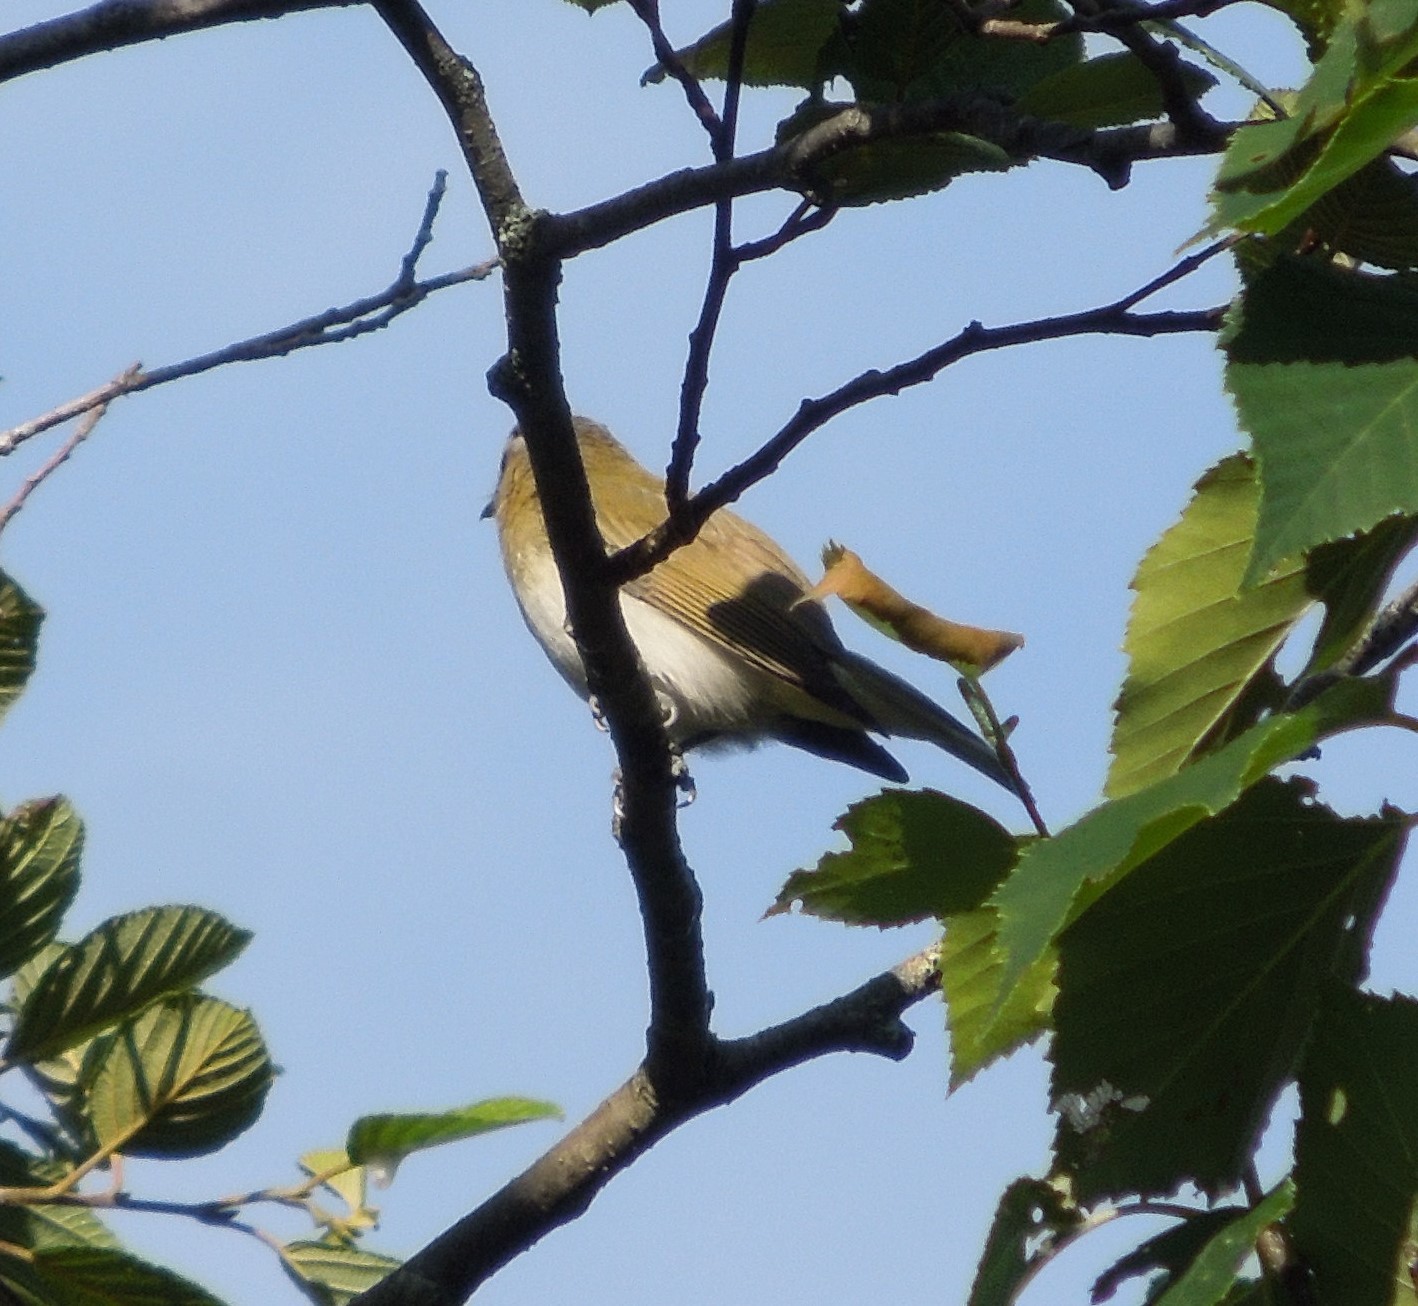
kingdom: Animalia
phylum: Chordata
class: Aves
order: Passeriformes
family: Vireonidae
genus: Vireo
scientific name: Vireo olivaceus
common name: Red-eyed vireo
